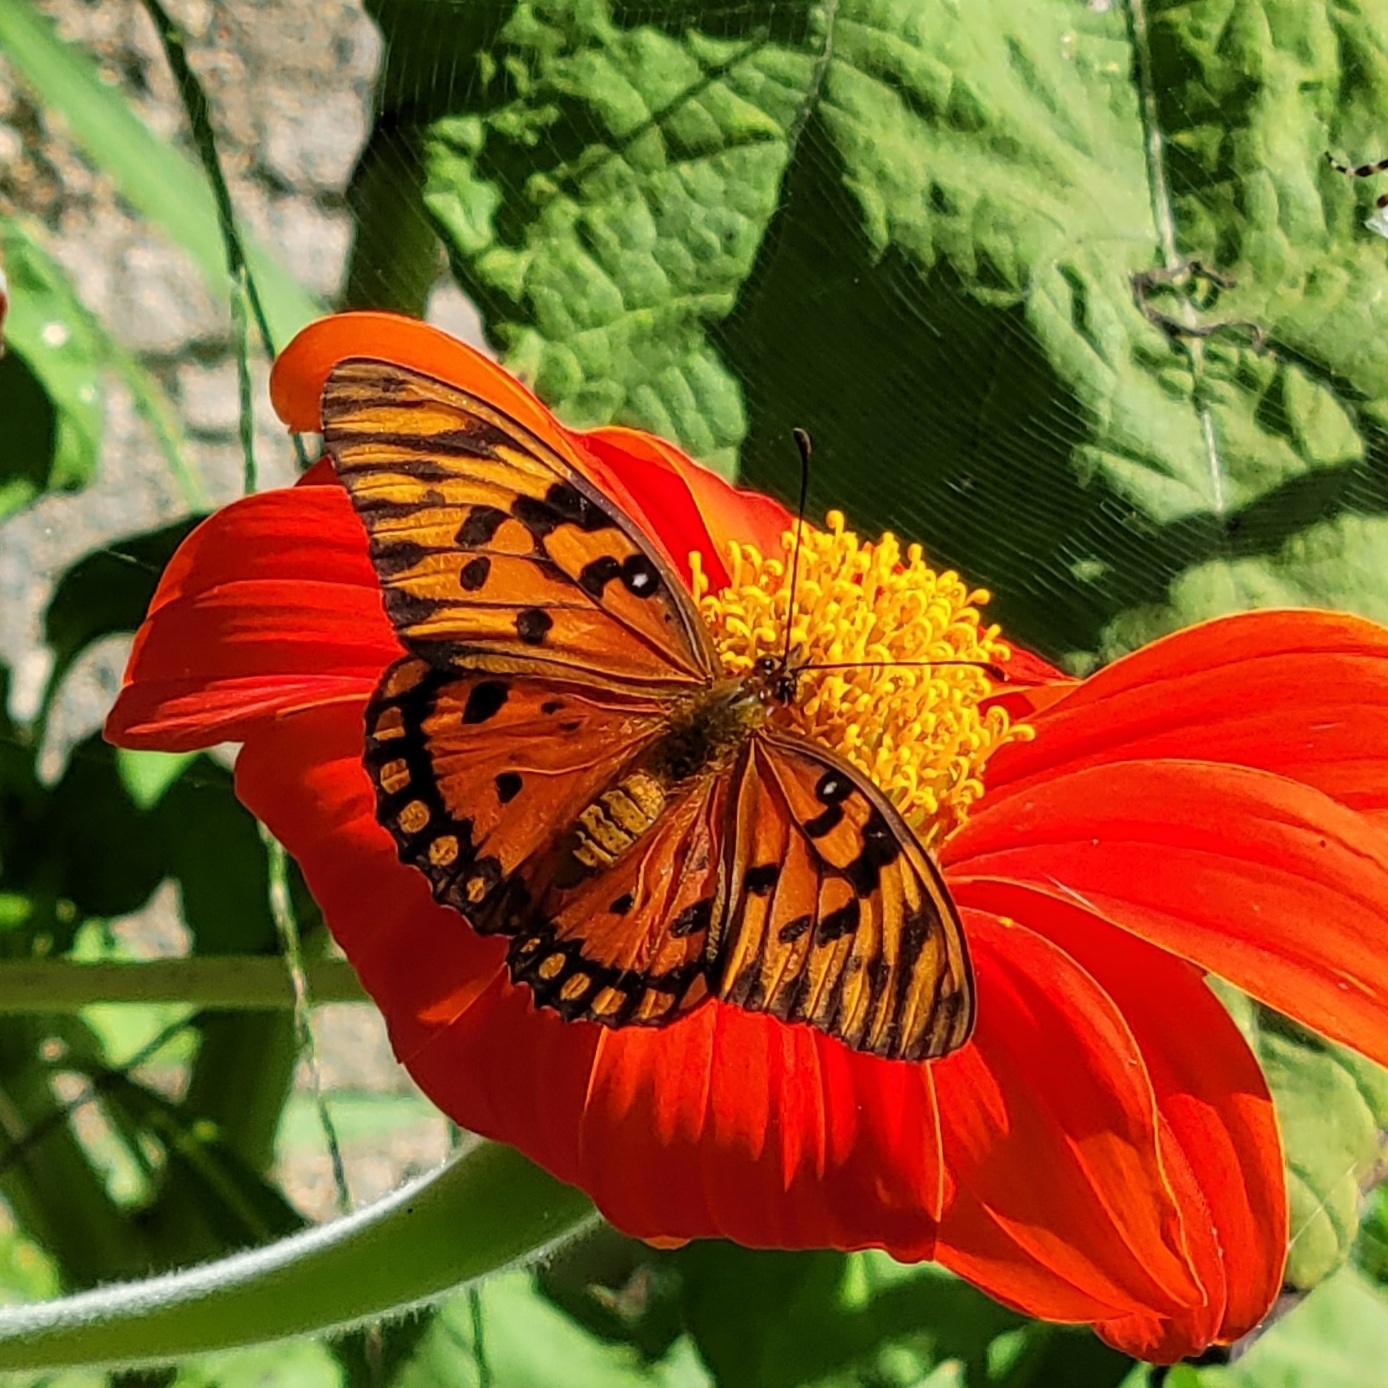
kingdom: Animalia
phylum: Arthropoda
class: Insecta
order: Lepidoptera
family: Nymphalidae
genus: Dione
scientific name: Dione vanillae
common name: Gulf fritillary
